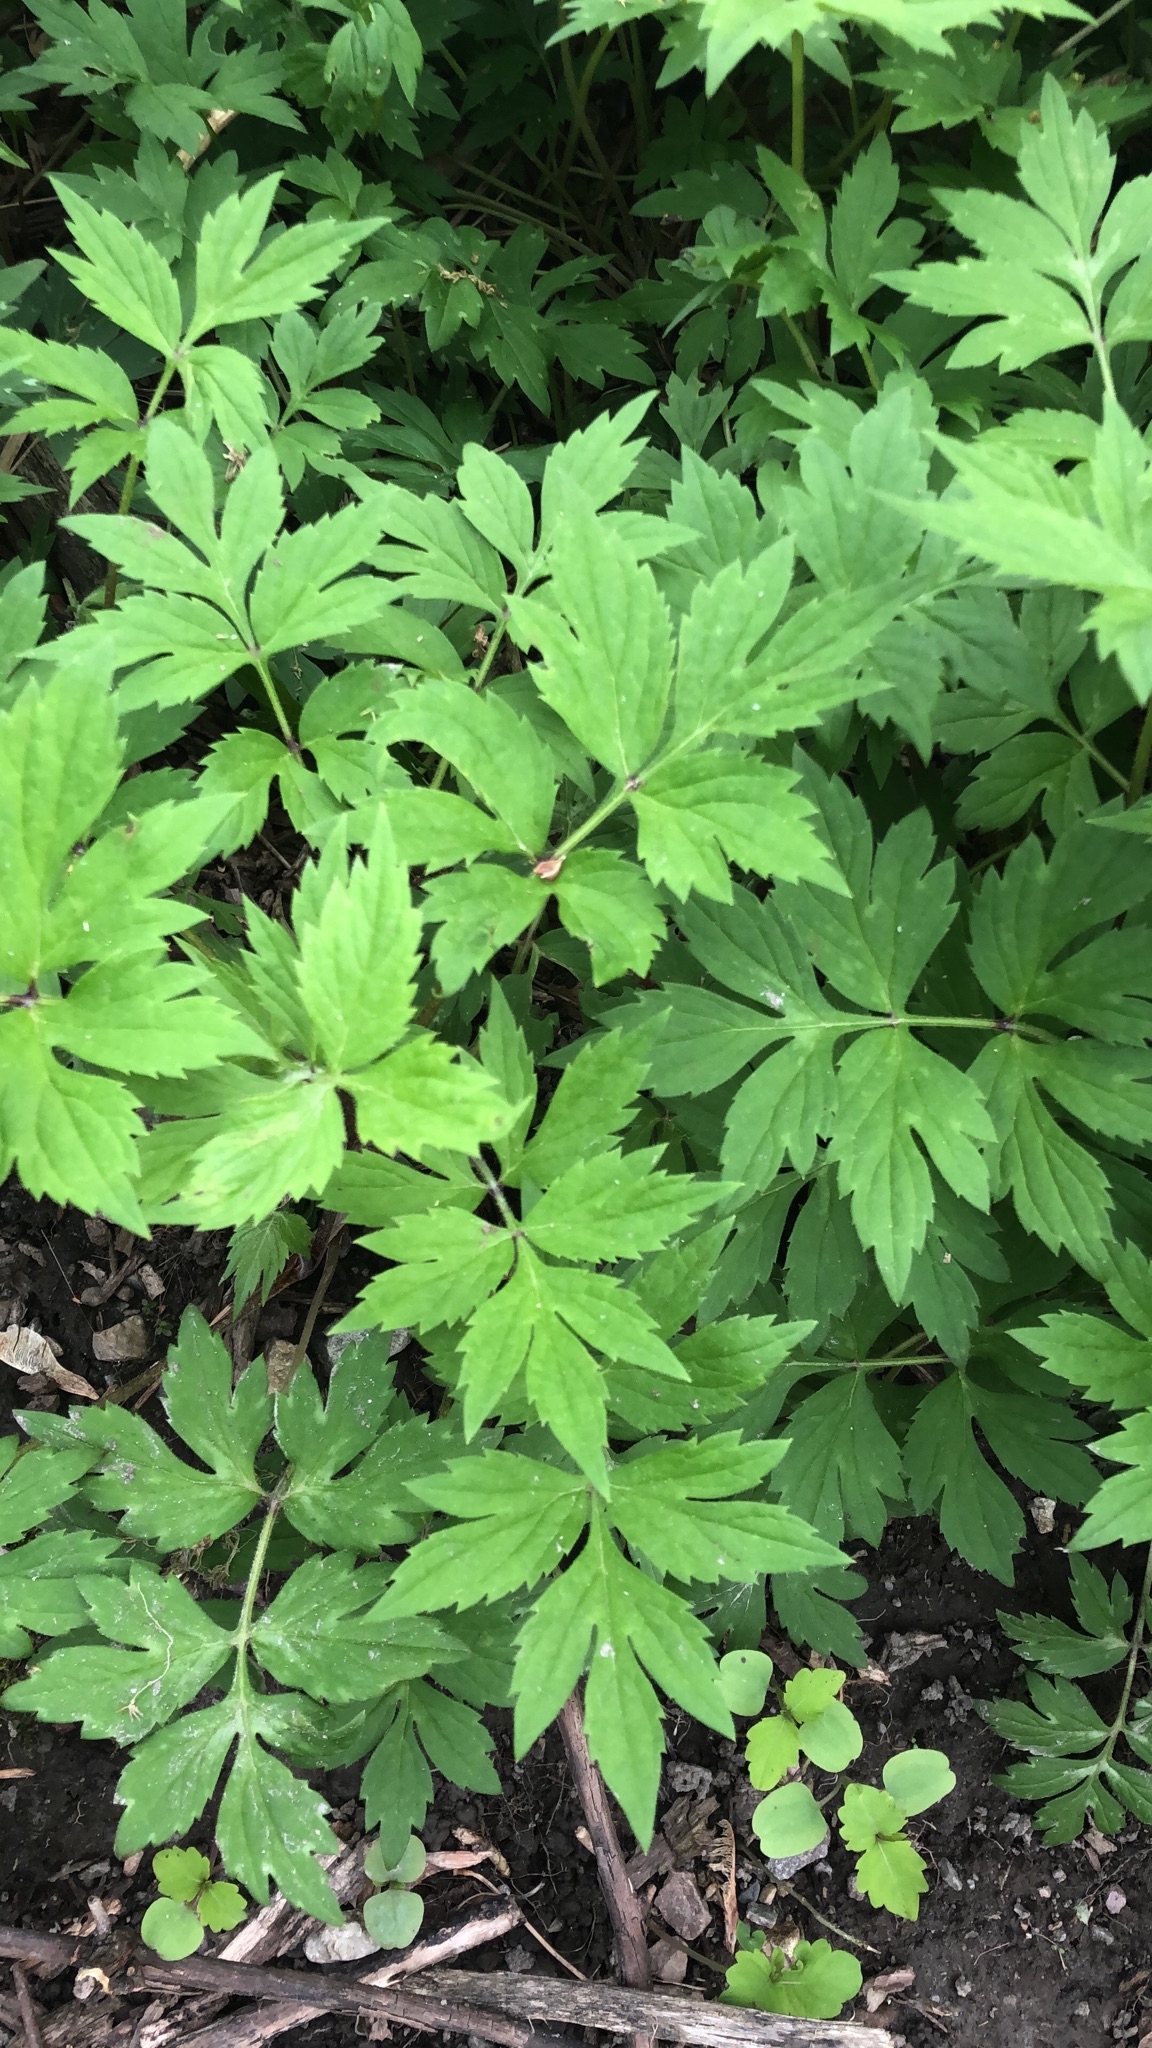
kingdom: Plantae
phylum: Tracheophyta
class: Magnoliopsida
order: Boraginales
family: Hydrophyllaceae
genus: Hydrophyllum
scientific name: Hydrophyllum virginianum
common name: Virginia waterleaf
